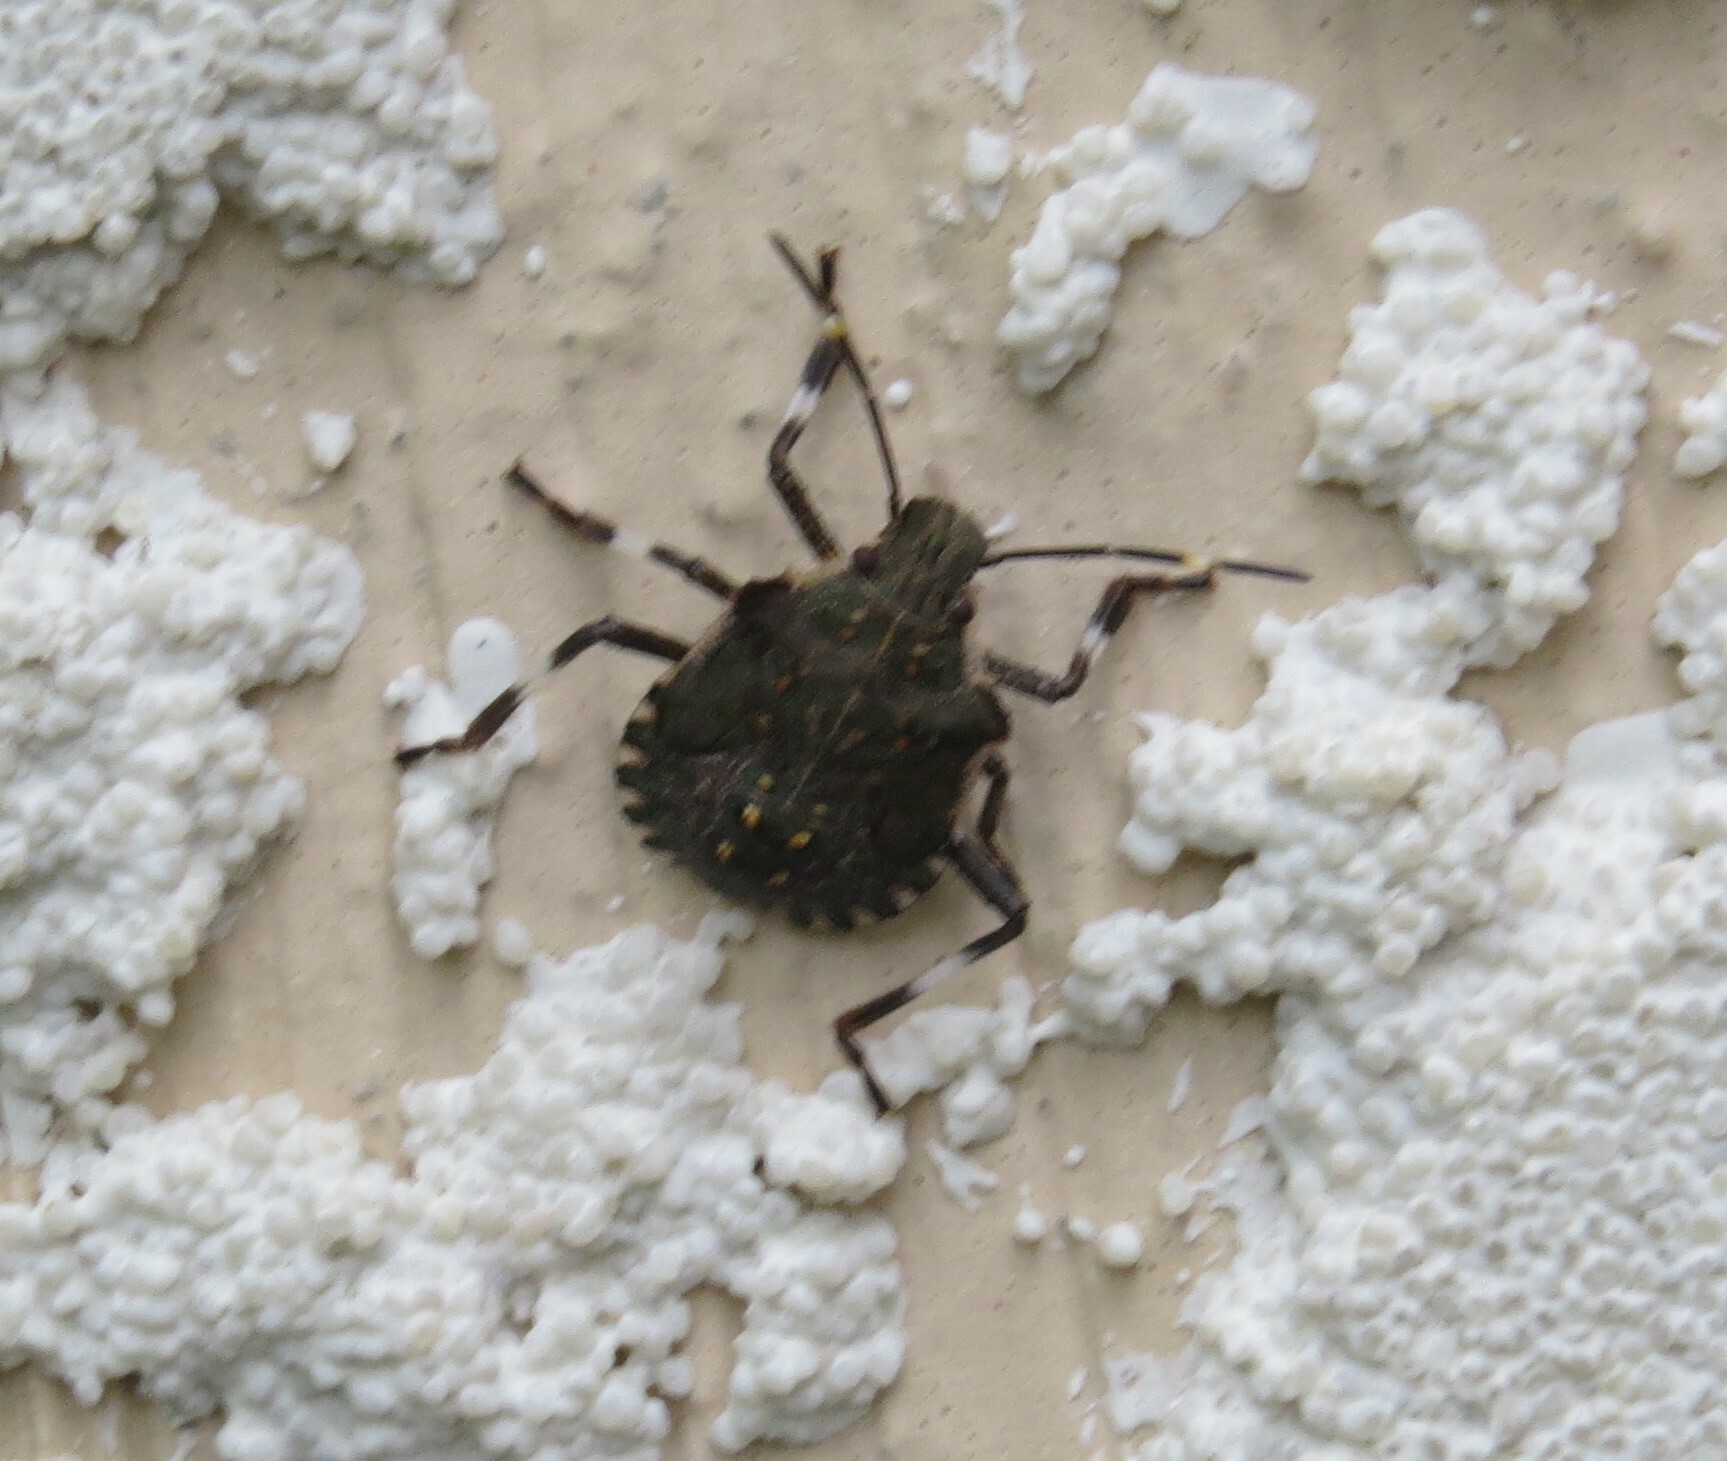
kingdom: Animalia
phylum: Arthropoda
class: Insecta
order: Hemiptera
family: Pentatomidae
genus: Halyomorpha
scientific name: Halyomorpha halys
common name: Brown marmorated stink bug
